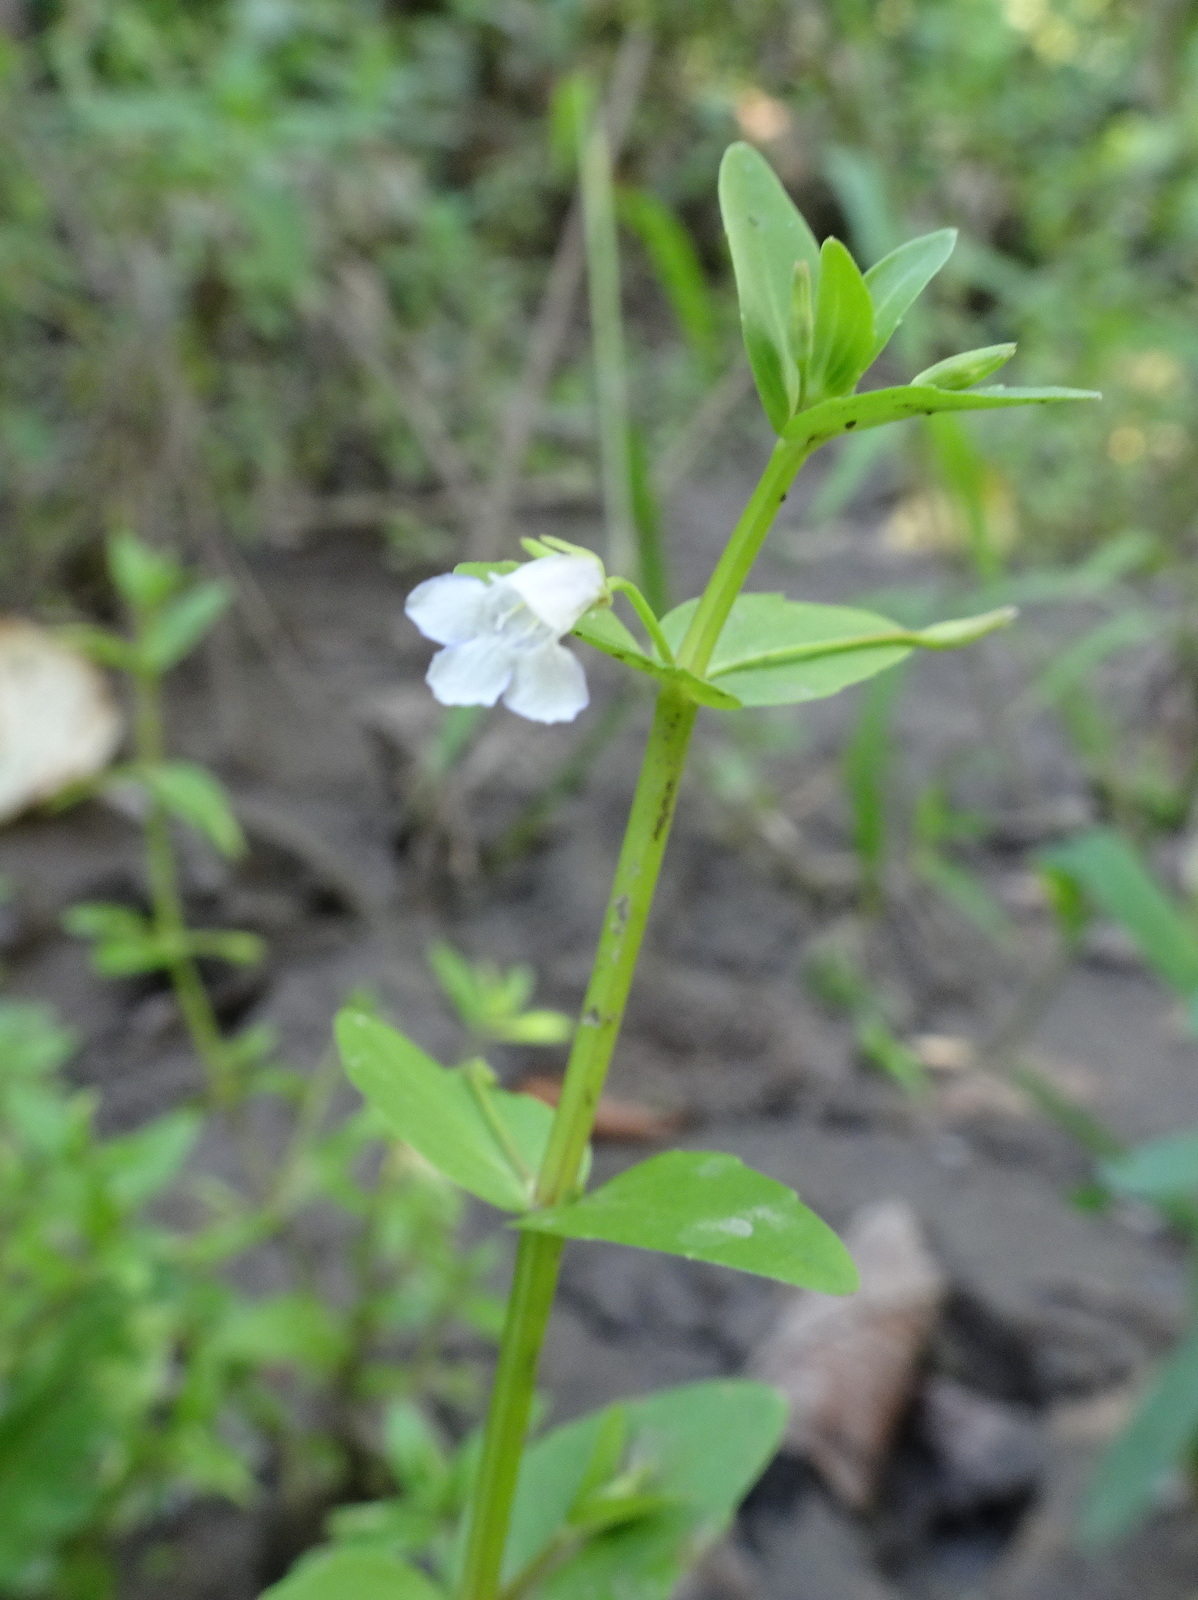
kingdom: Plantae
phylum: Tracheophyta
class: Magnoliopsida
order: Lamiales
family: Linderniaceae
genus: Lindernia
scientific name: Lindernia dubia
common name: Annual false pimpernel
